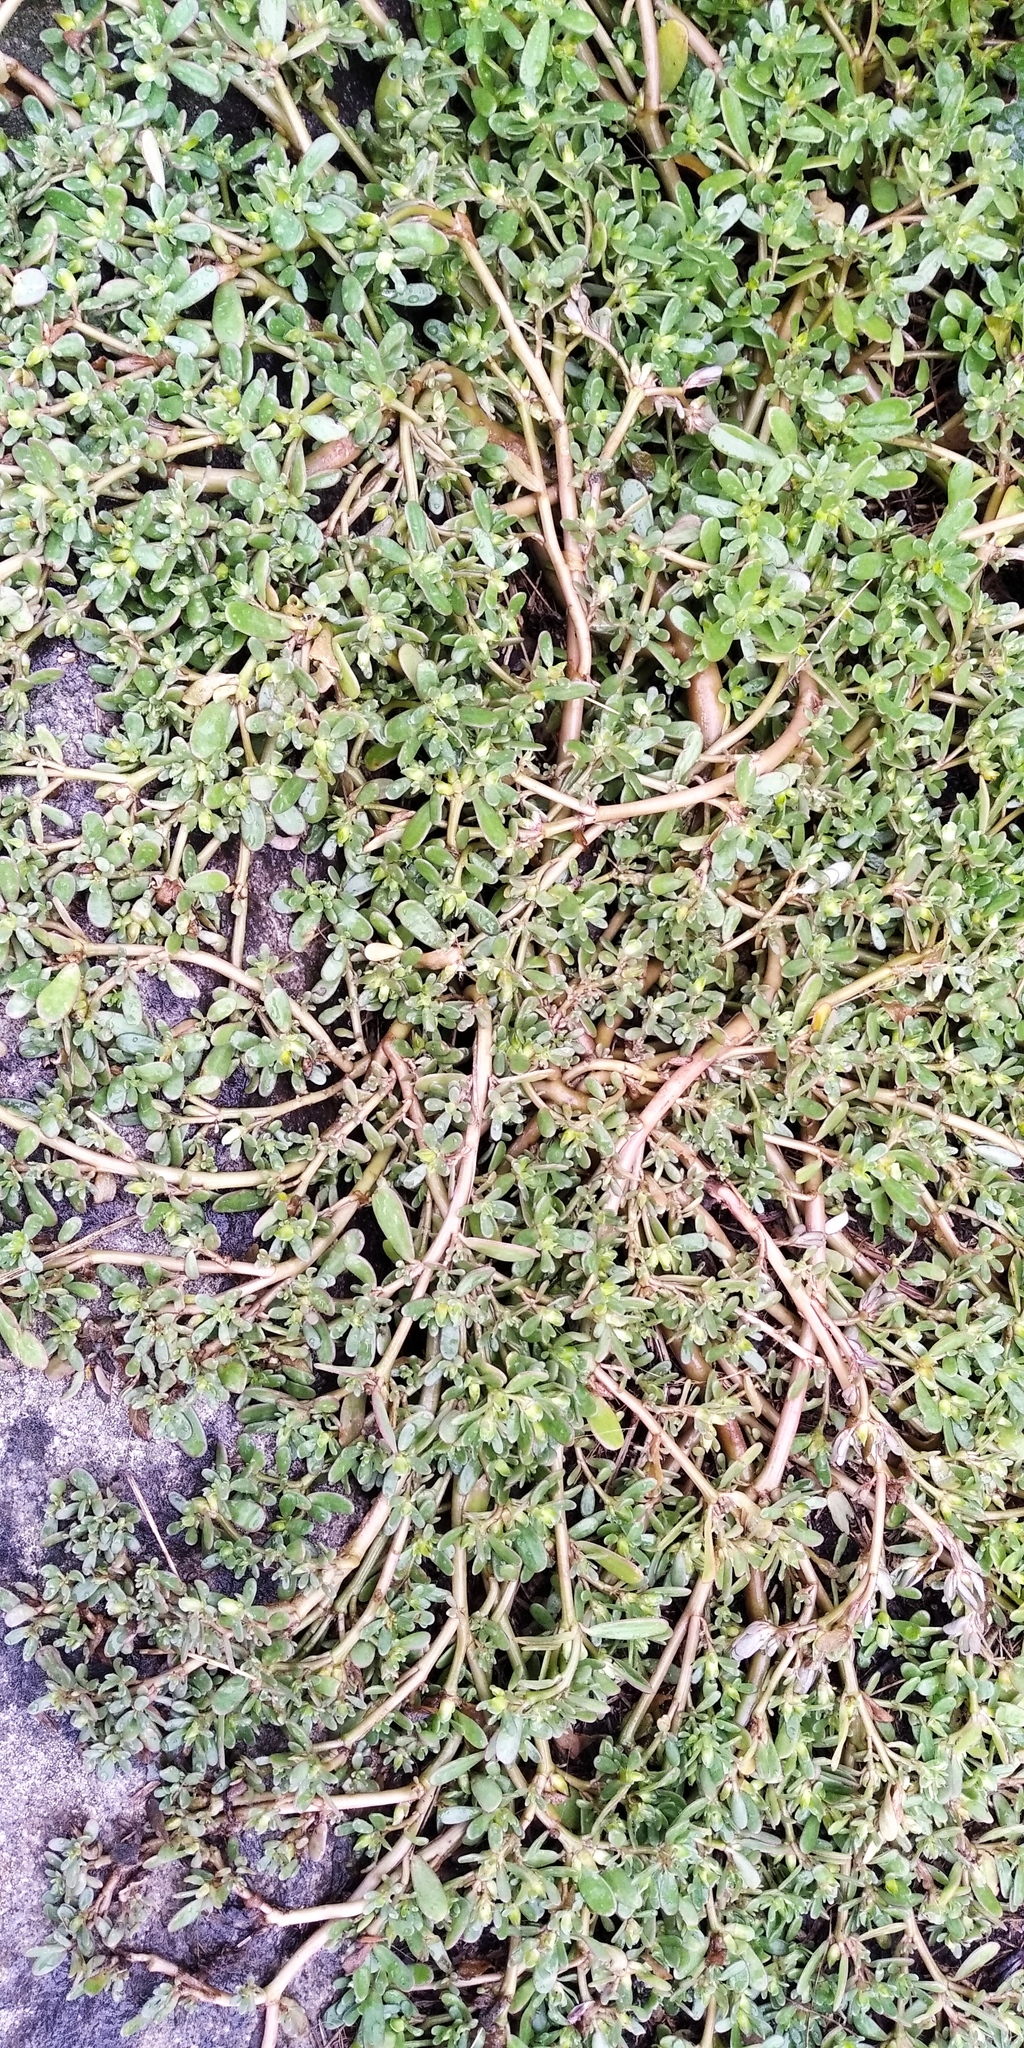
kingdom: Plantae
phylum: Tracheophyta
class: Magnoliopsida
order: Caryophyllales
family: Portulacaceae
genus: Portulaca
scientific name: Portulaca oleracea
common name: Common purslane
